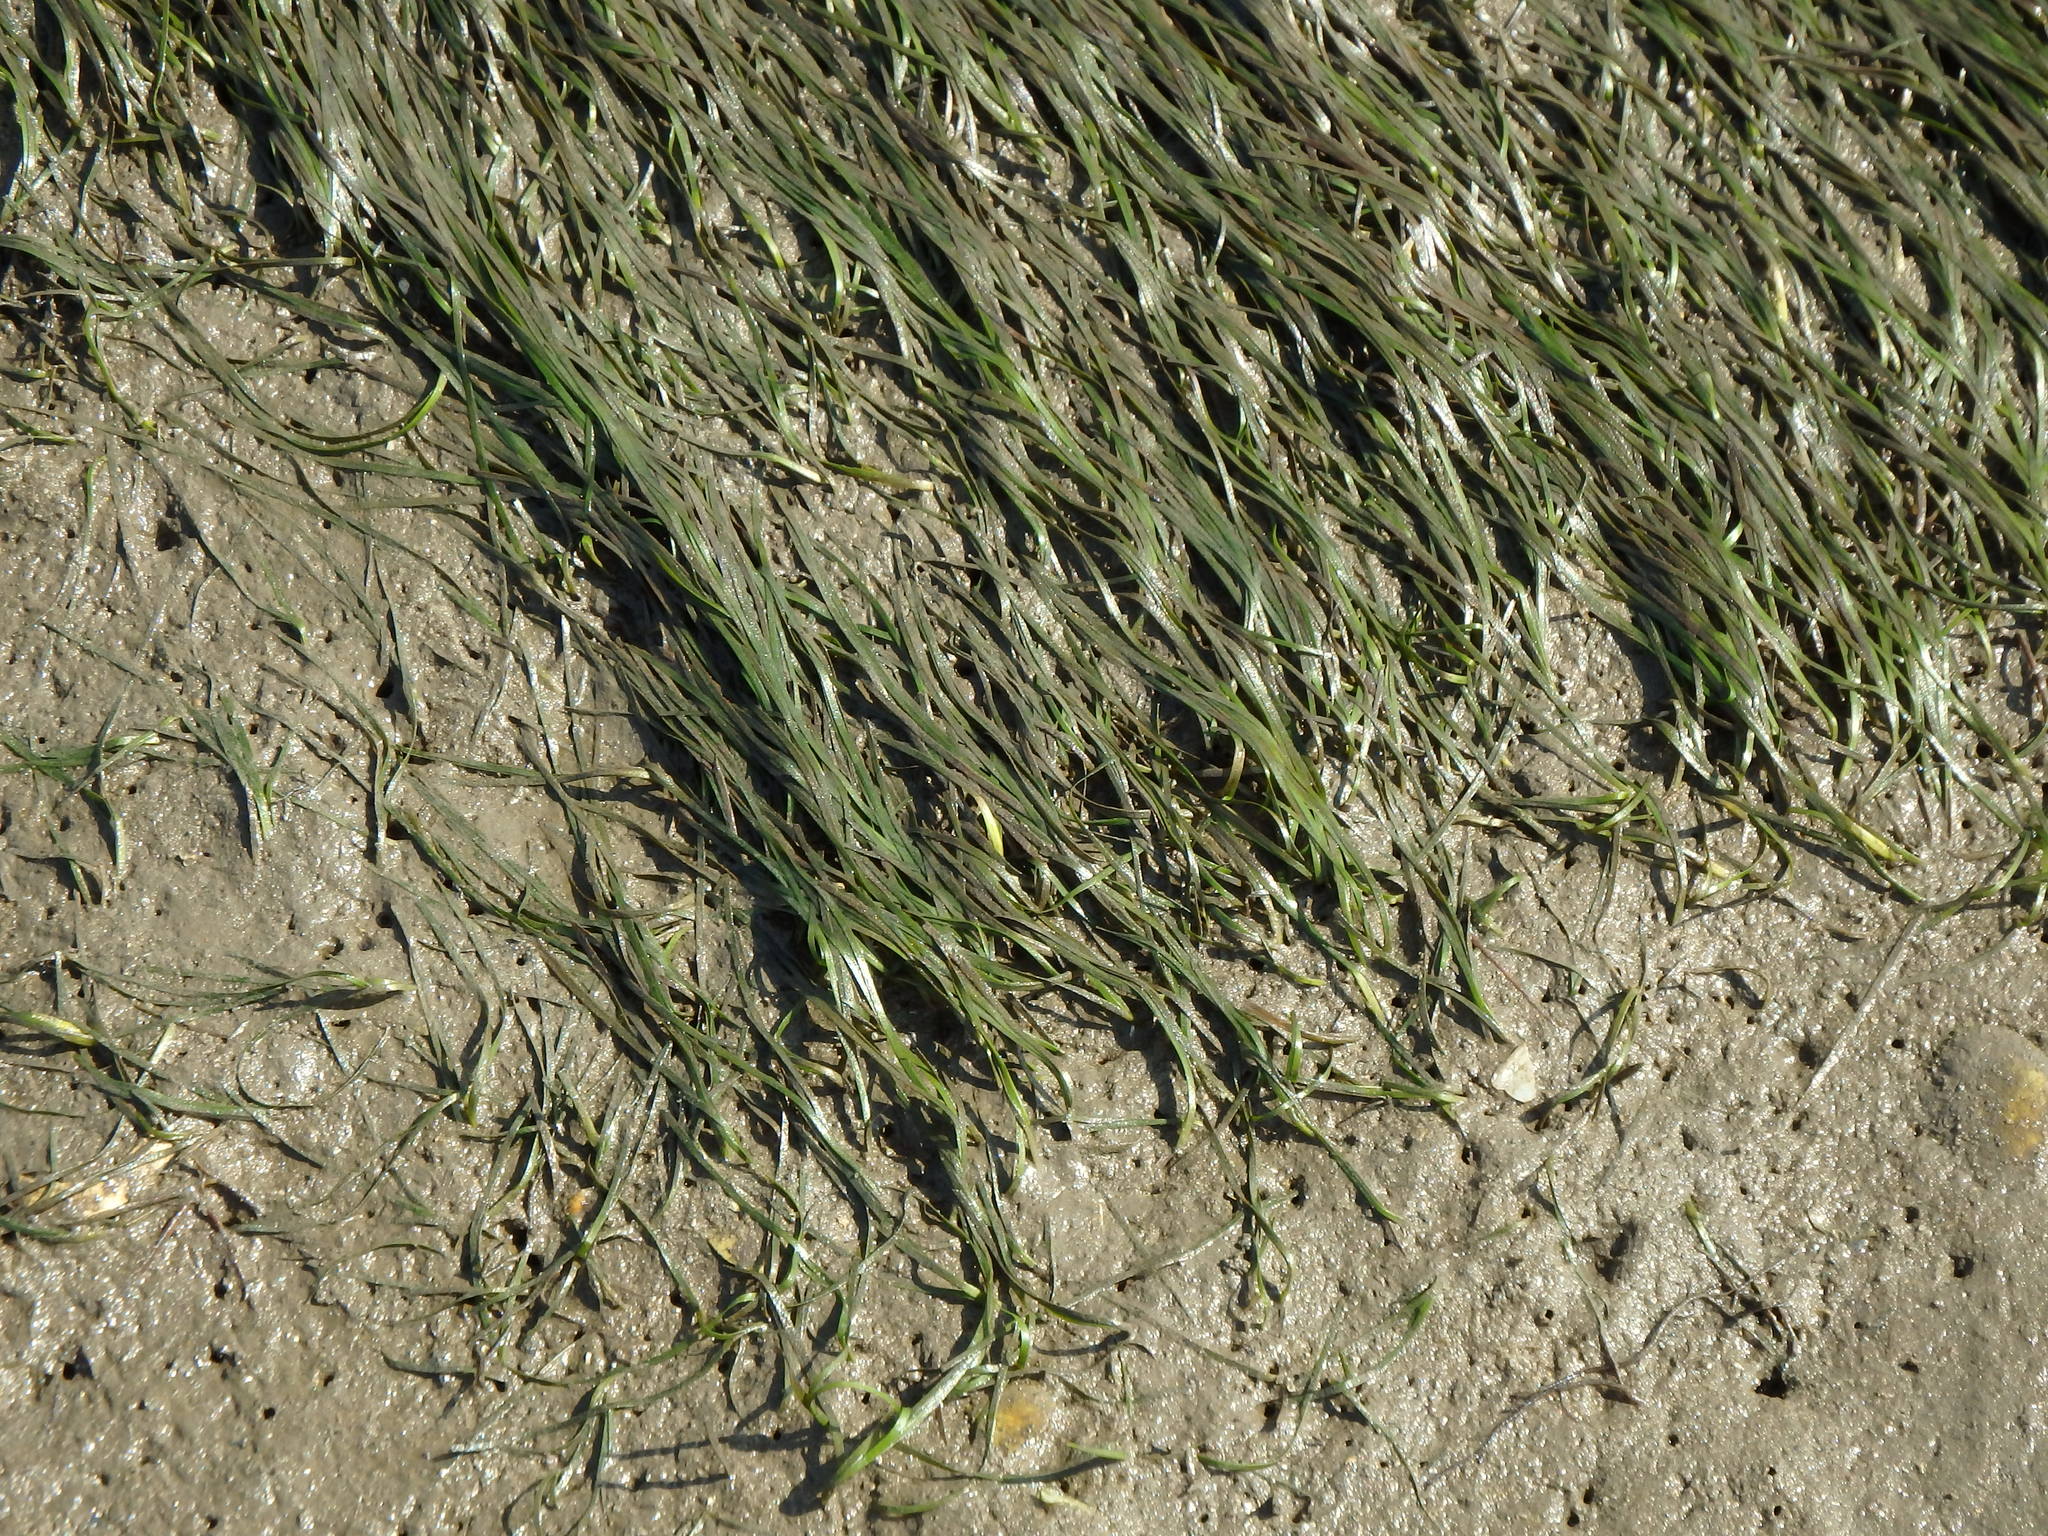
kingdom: Plantae
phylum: Tracheophyta
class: Liliopsida
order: Alismatales
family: Zosteraceae
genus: Zostera
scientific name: Zostera noltii
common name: Dwarf eelgrass
